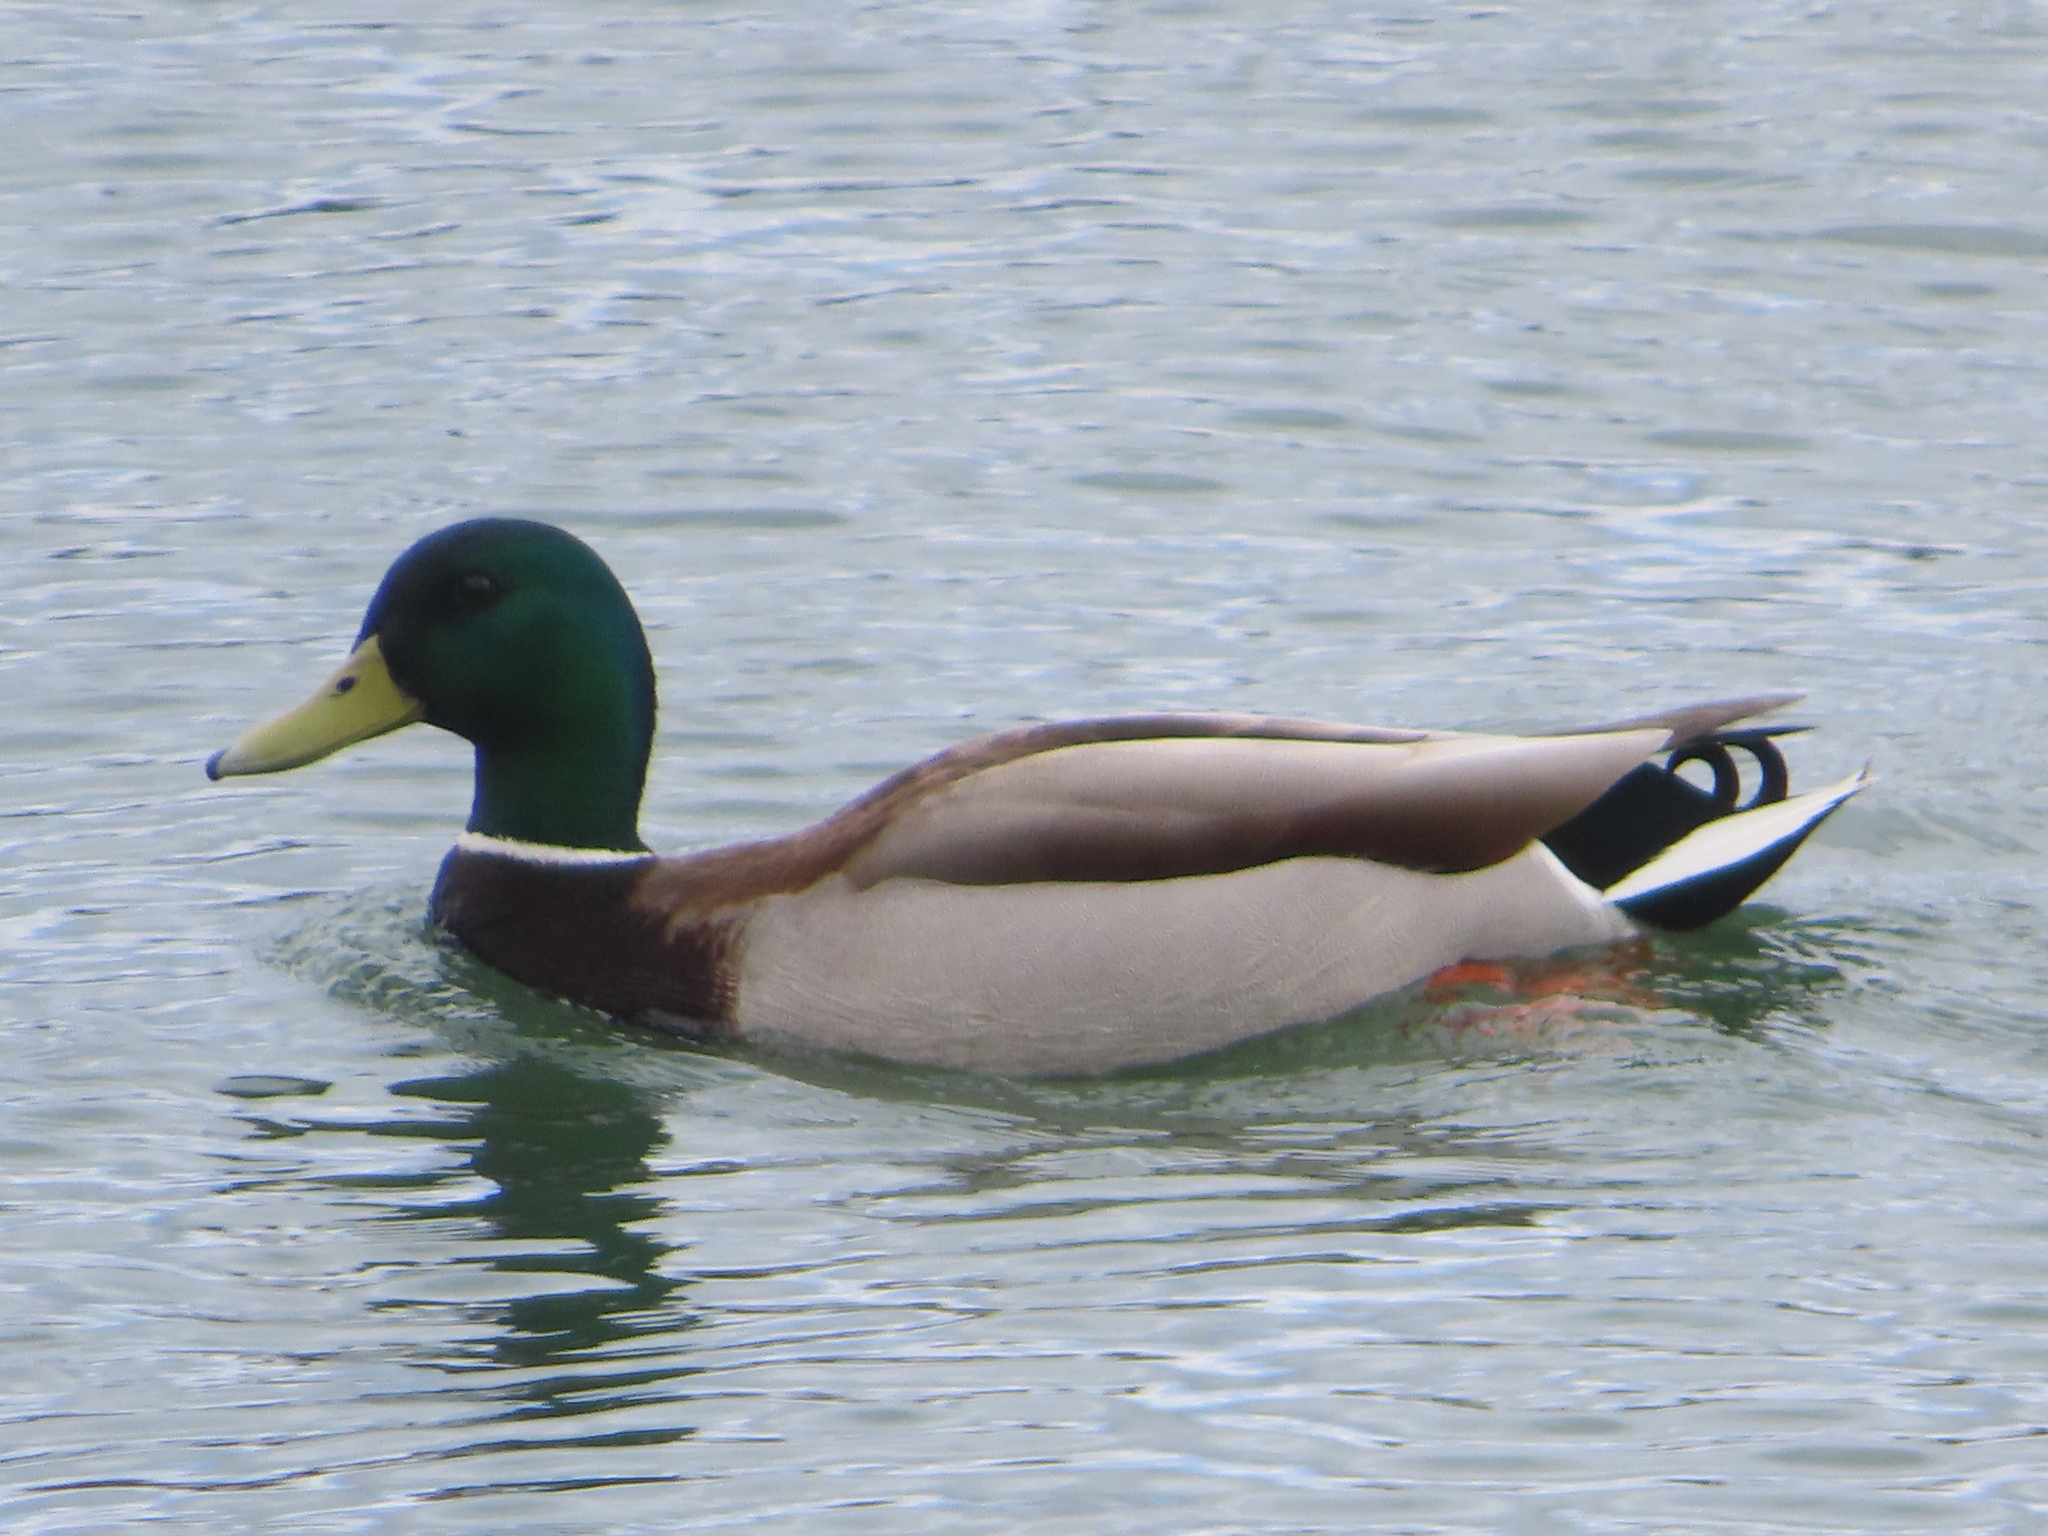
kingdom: Animalia
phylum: Chordata
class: Aves
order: Anseriformes
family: Anatidae
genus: Anas
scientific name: Anas platyrhynchos
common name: Mallard
